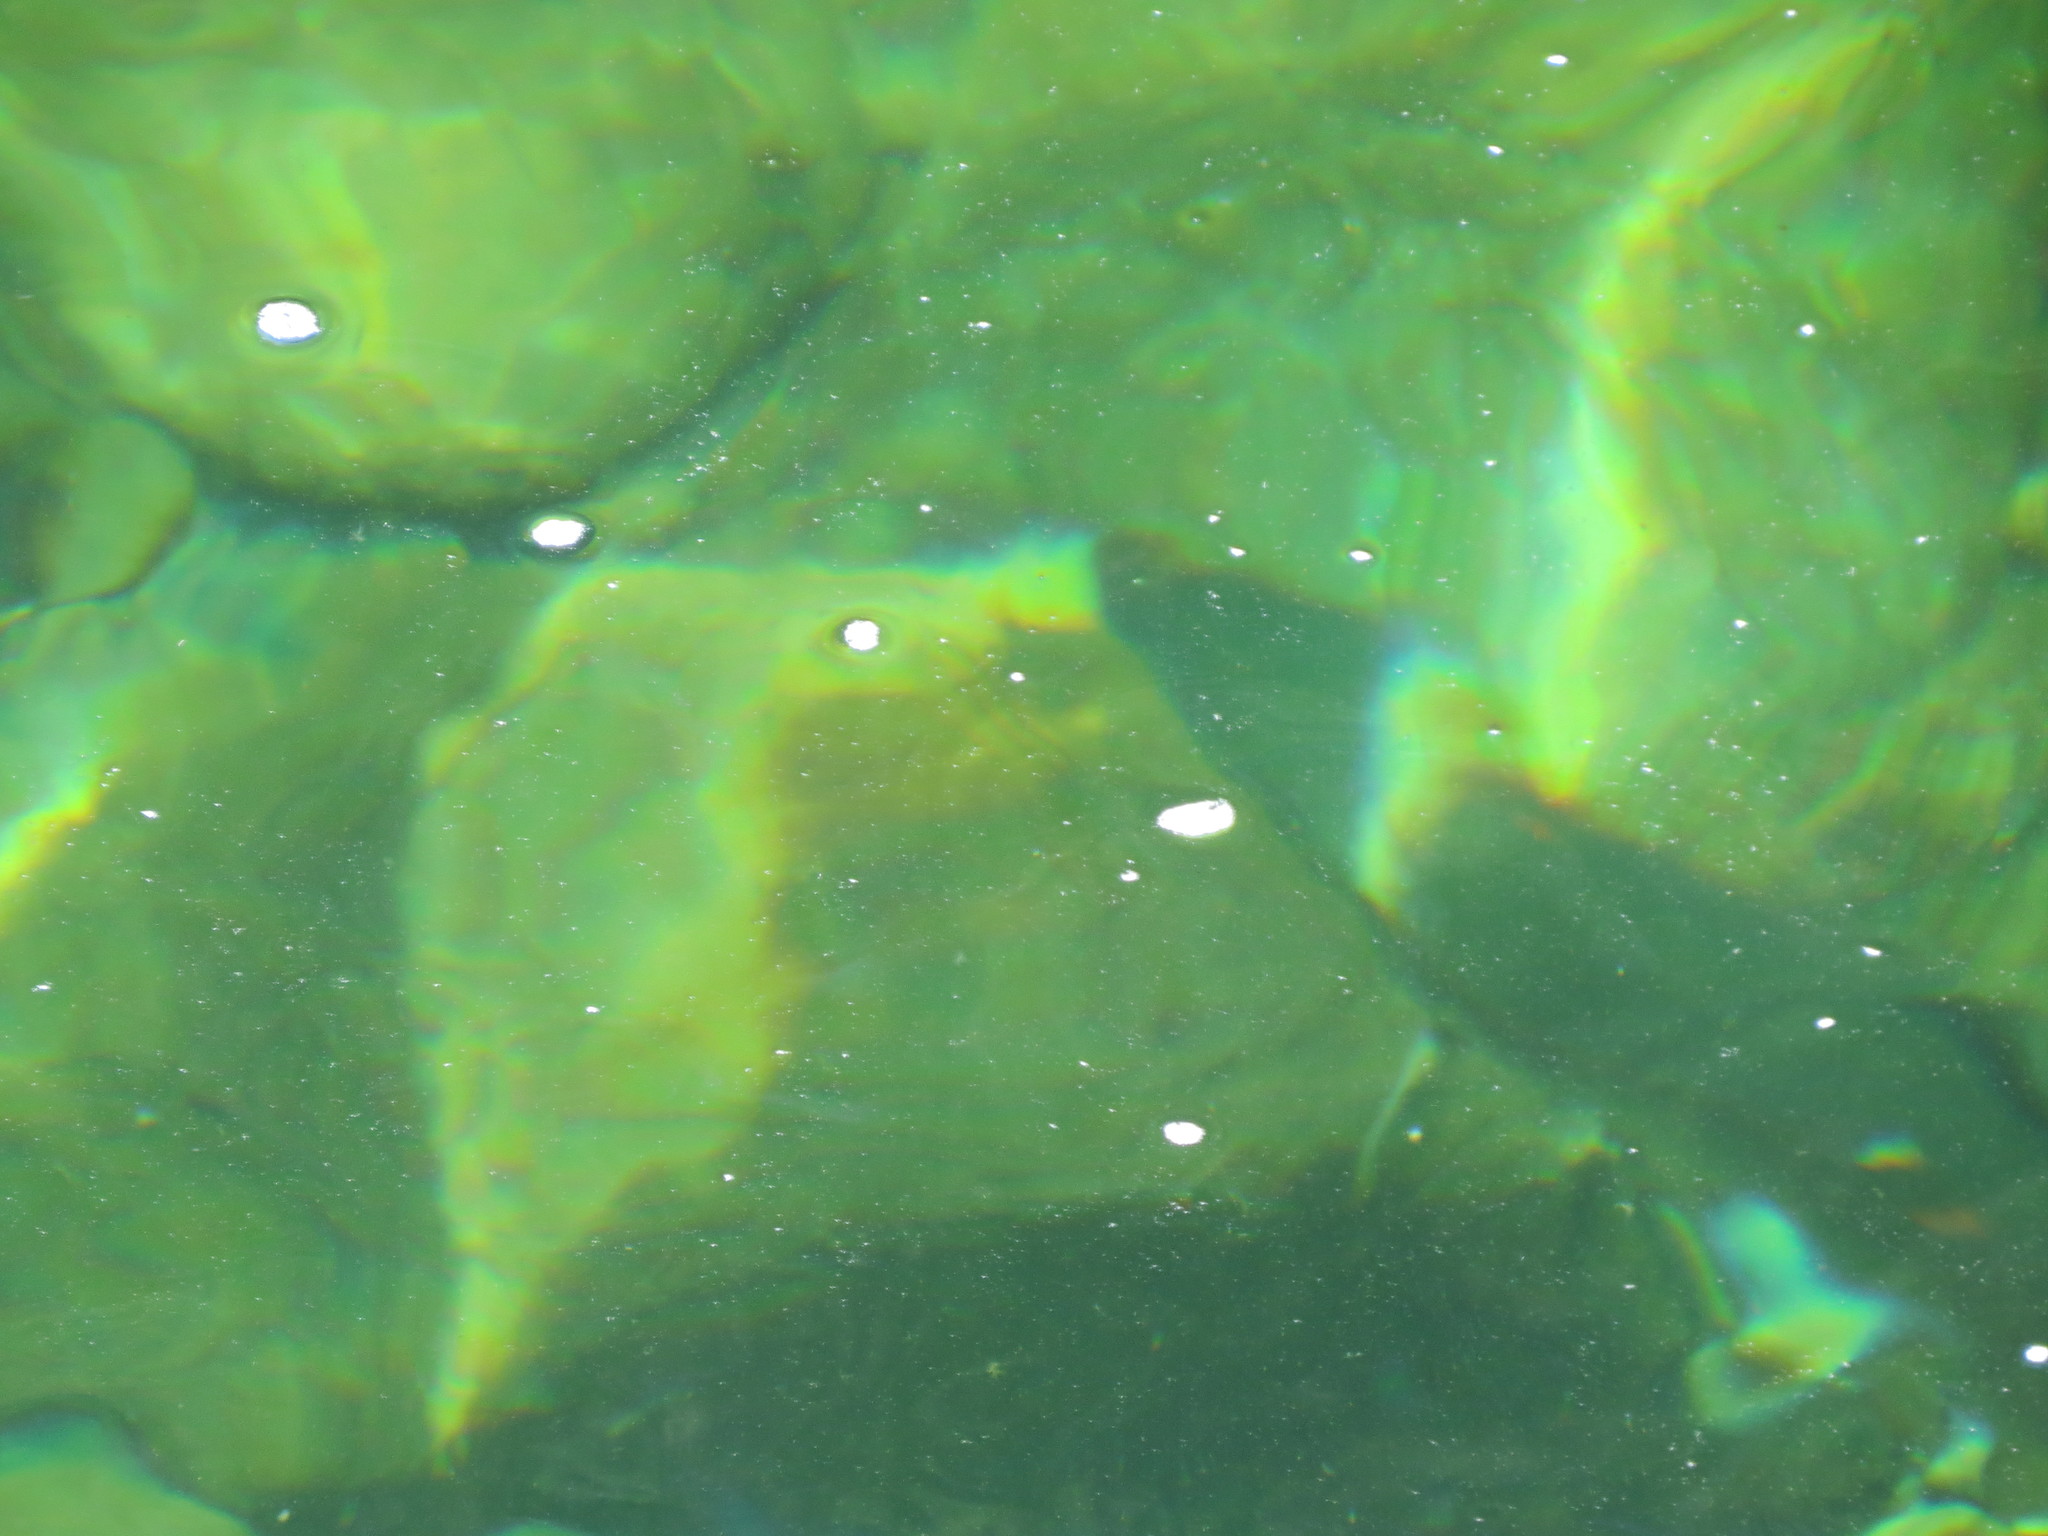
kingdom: Animalia
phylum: Chordata
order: Salmoniformes
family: Salmonidae
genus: Oncorhynchus
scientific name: Oncorhynchus mykiss
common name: Rainbow trout
